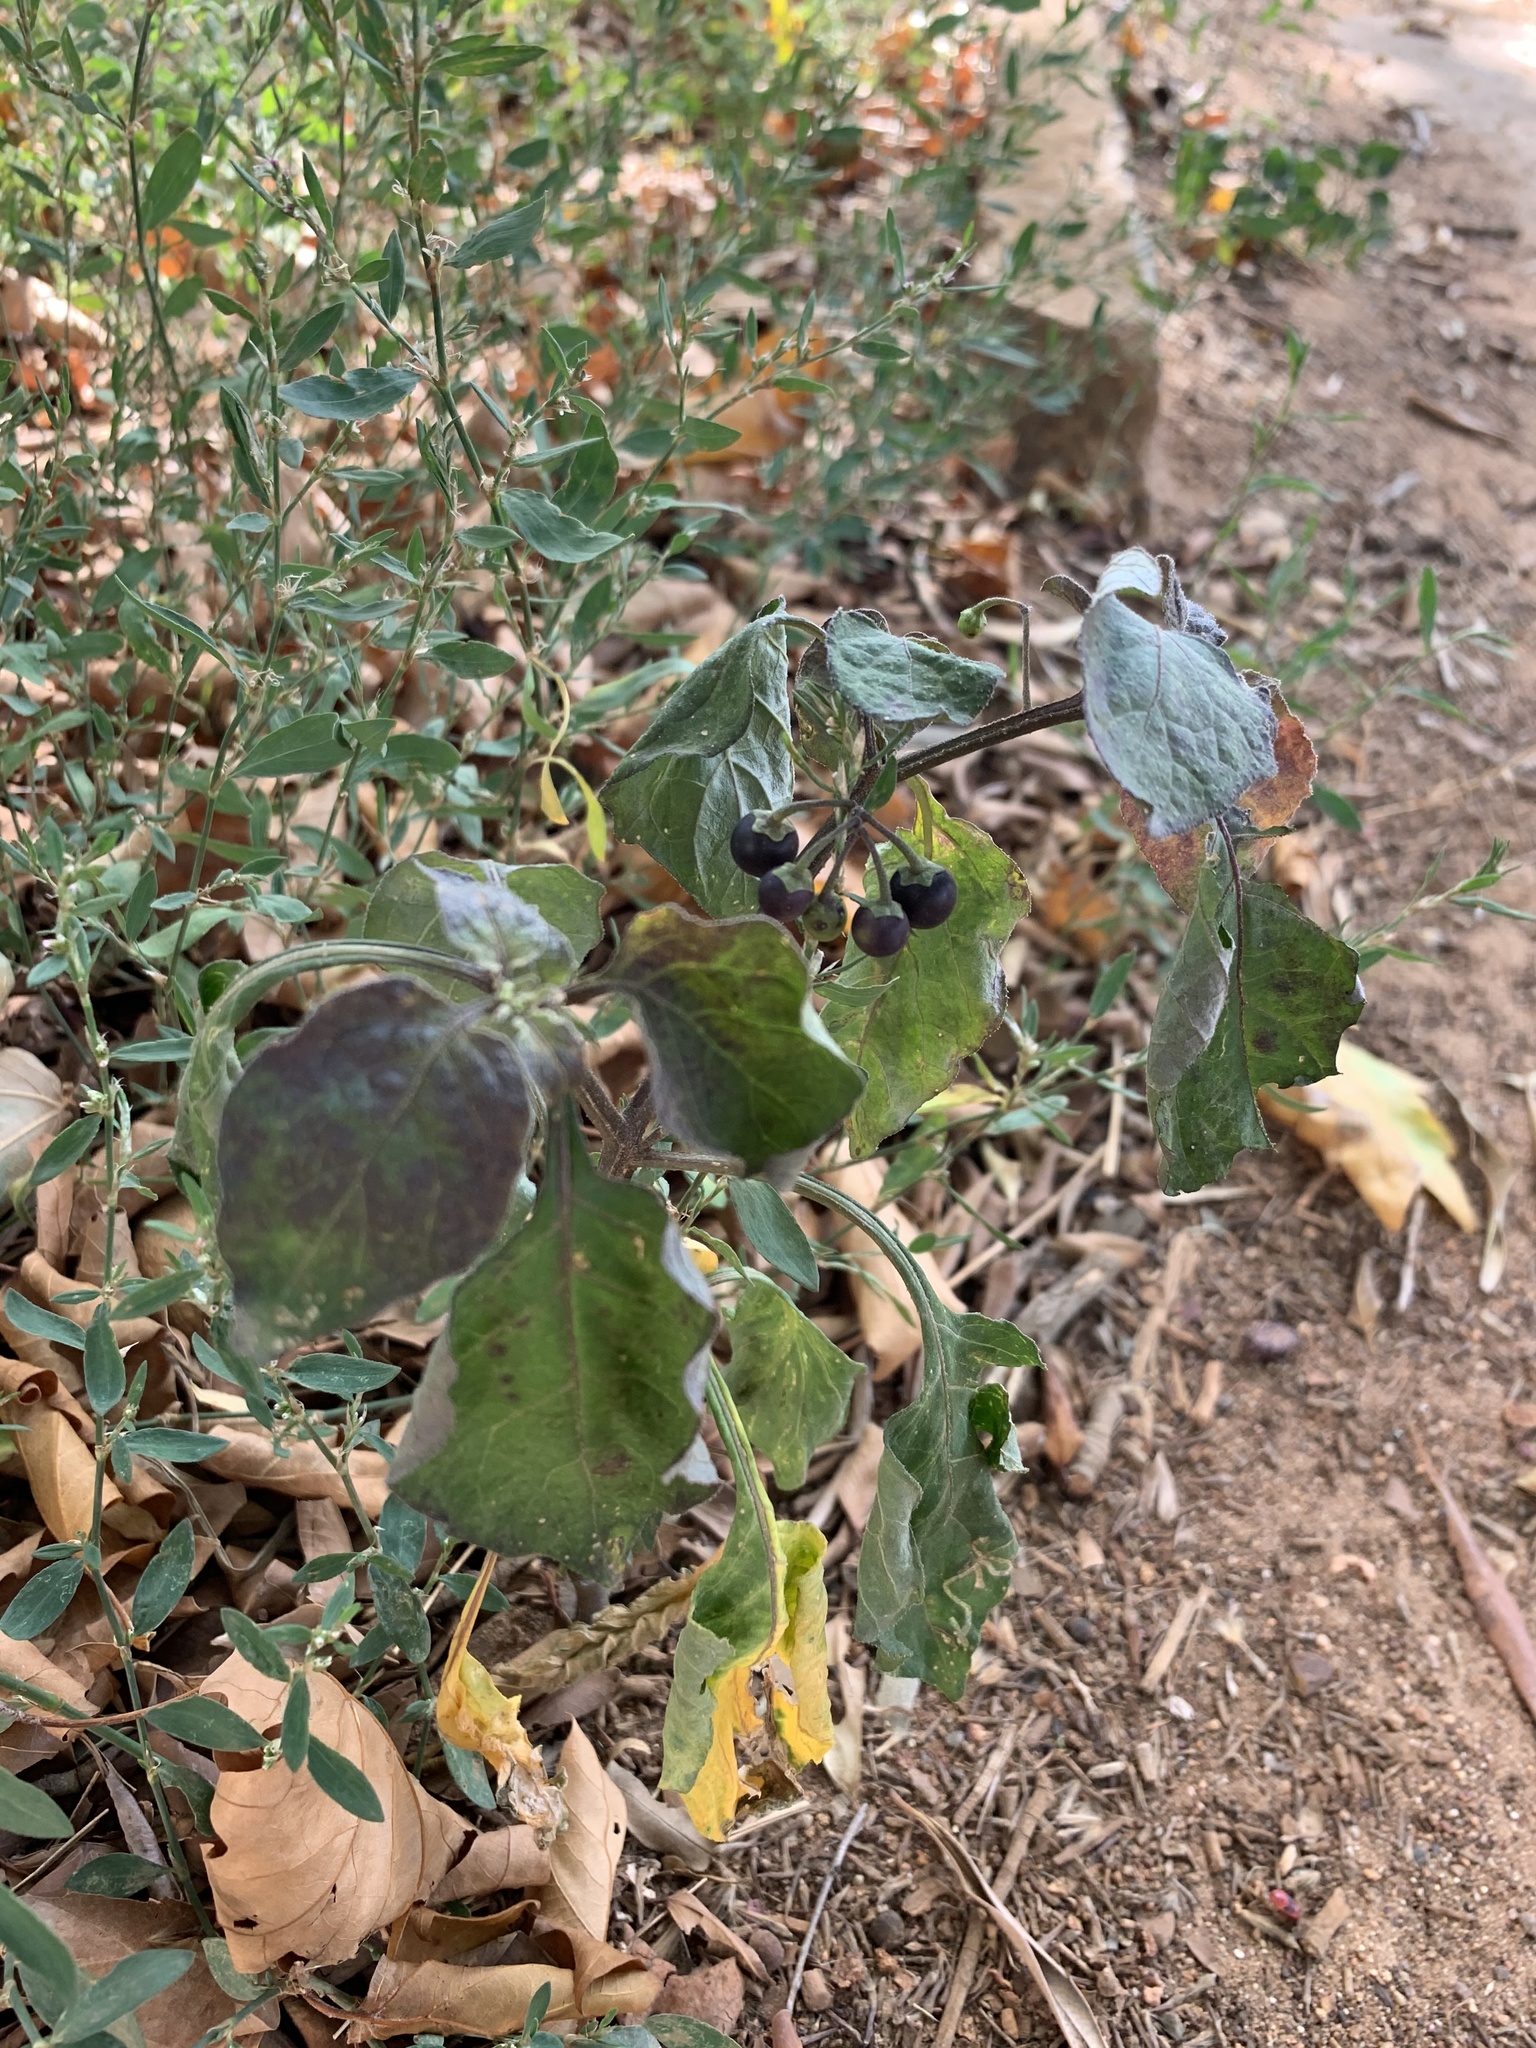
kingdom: Plantae
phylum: Tracheophyta
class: Magnoliopsida
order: Solanales
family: Solanaceae
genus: Solanum
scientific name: Solanum nigrum
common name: Black nightshade
